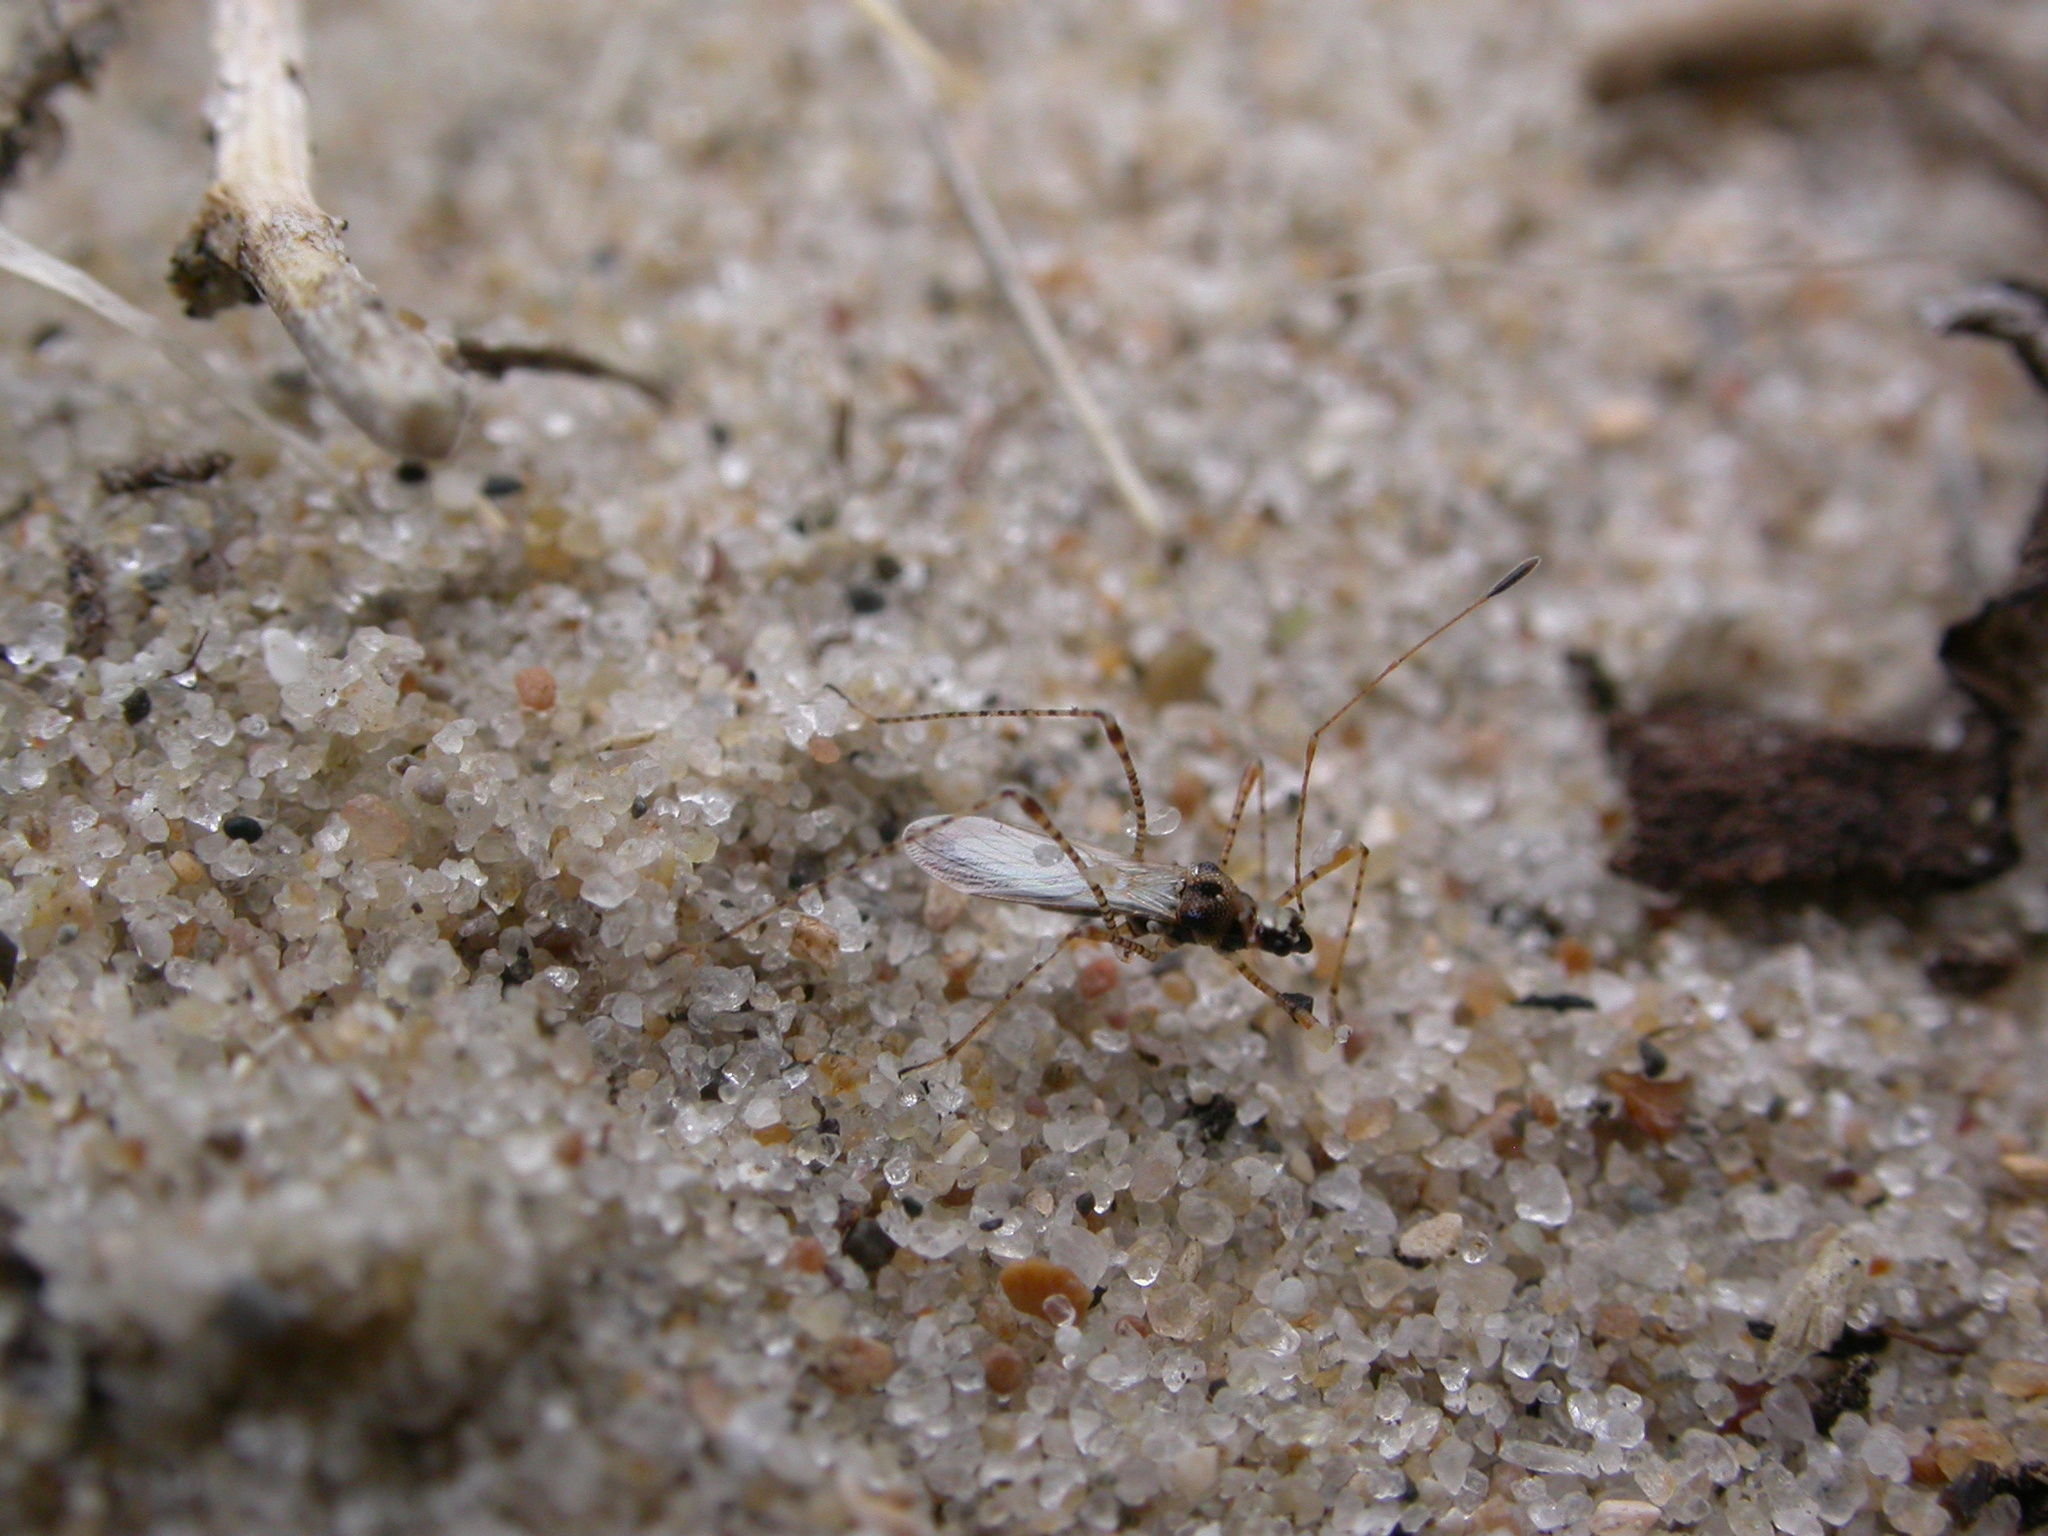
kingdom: Animalia
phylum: Arthropoda
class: Insecta
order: Hemiptera
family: Berytidae
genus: Gampsocoris
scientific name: Gampsocoris punctipes
